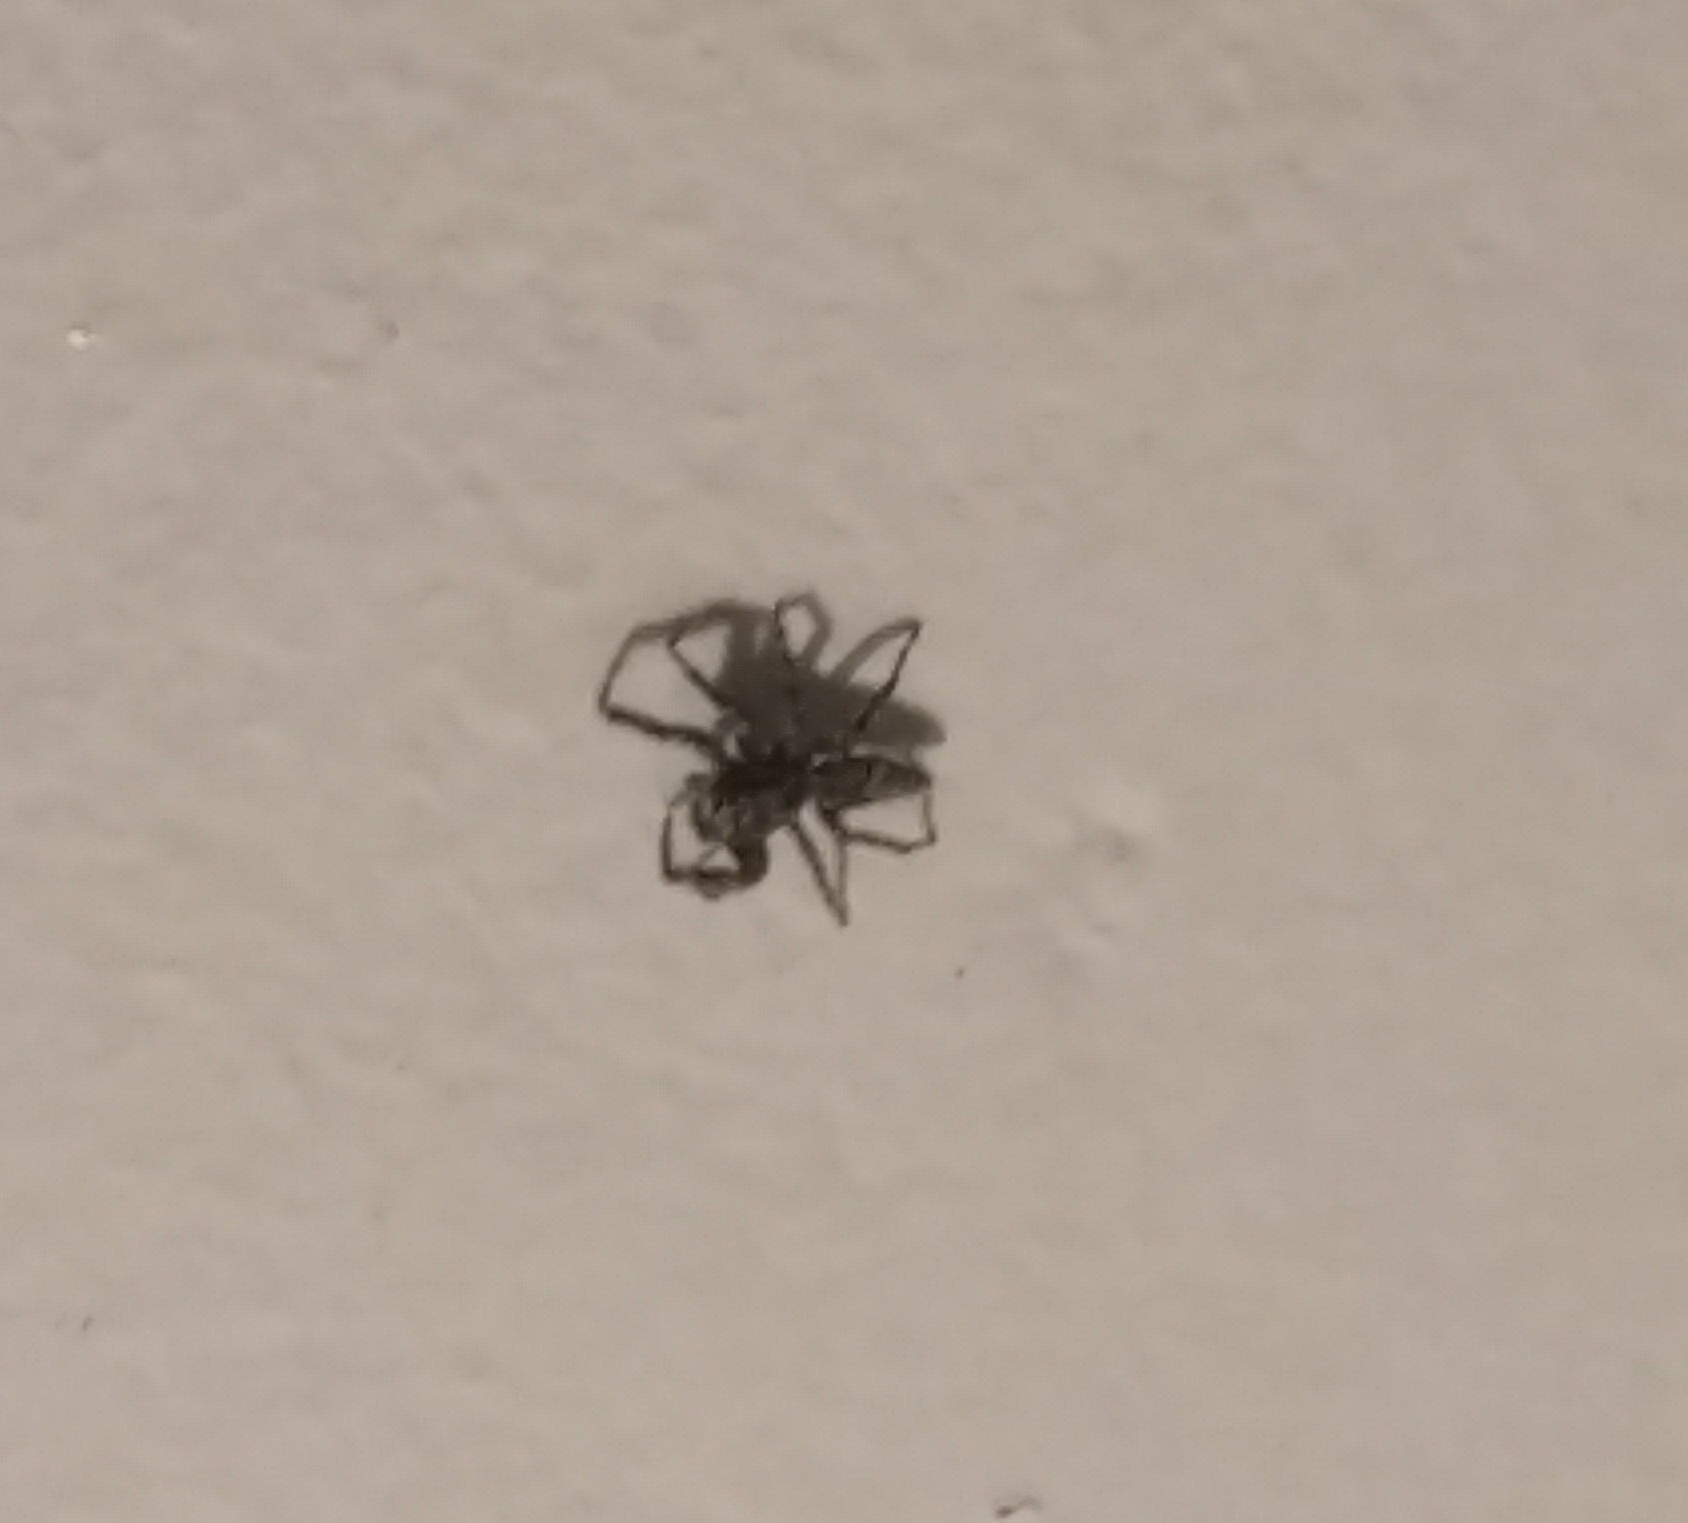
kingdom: Animalia
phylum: Arthropoda
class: Arachnida
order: Araneae
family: Salticidae
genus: Platycryptus
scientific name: Platycryptus undatus
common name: Tan jumping spider
